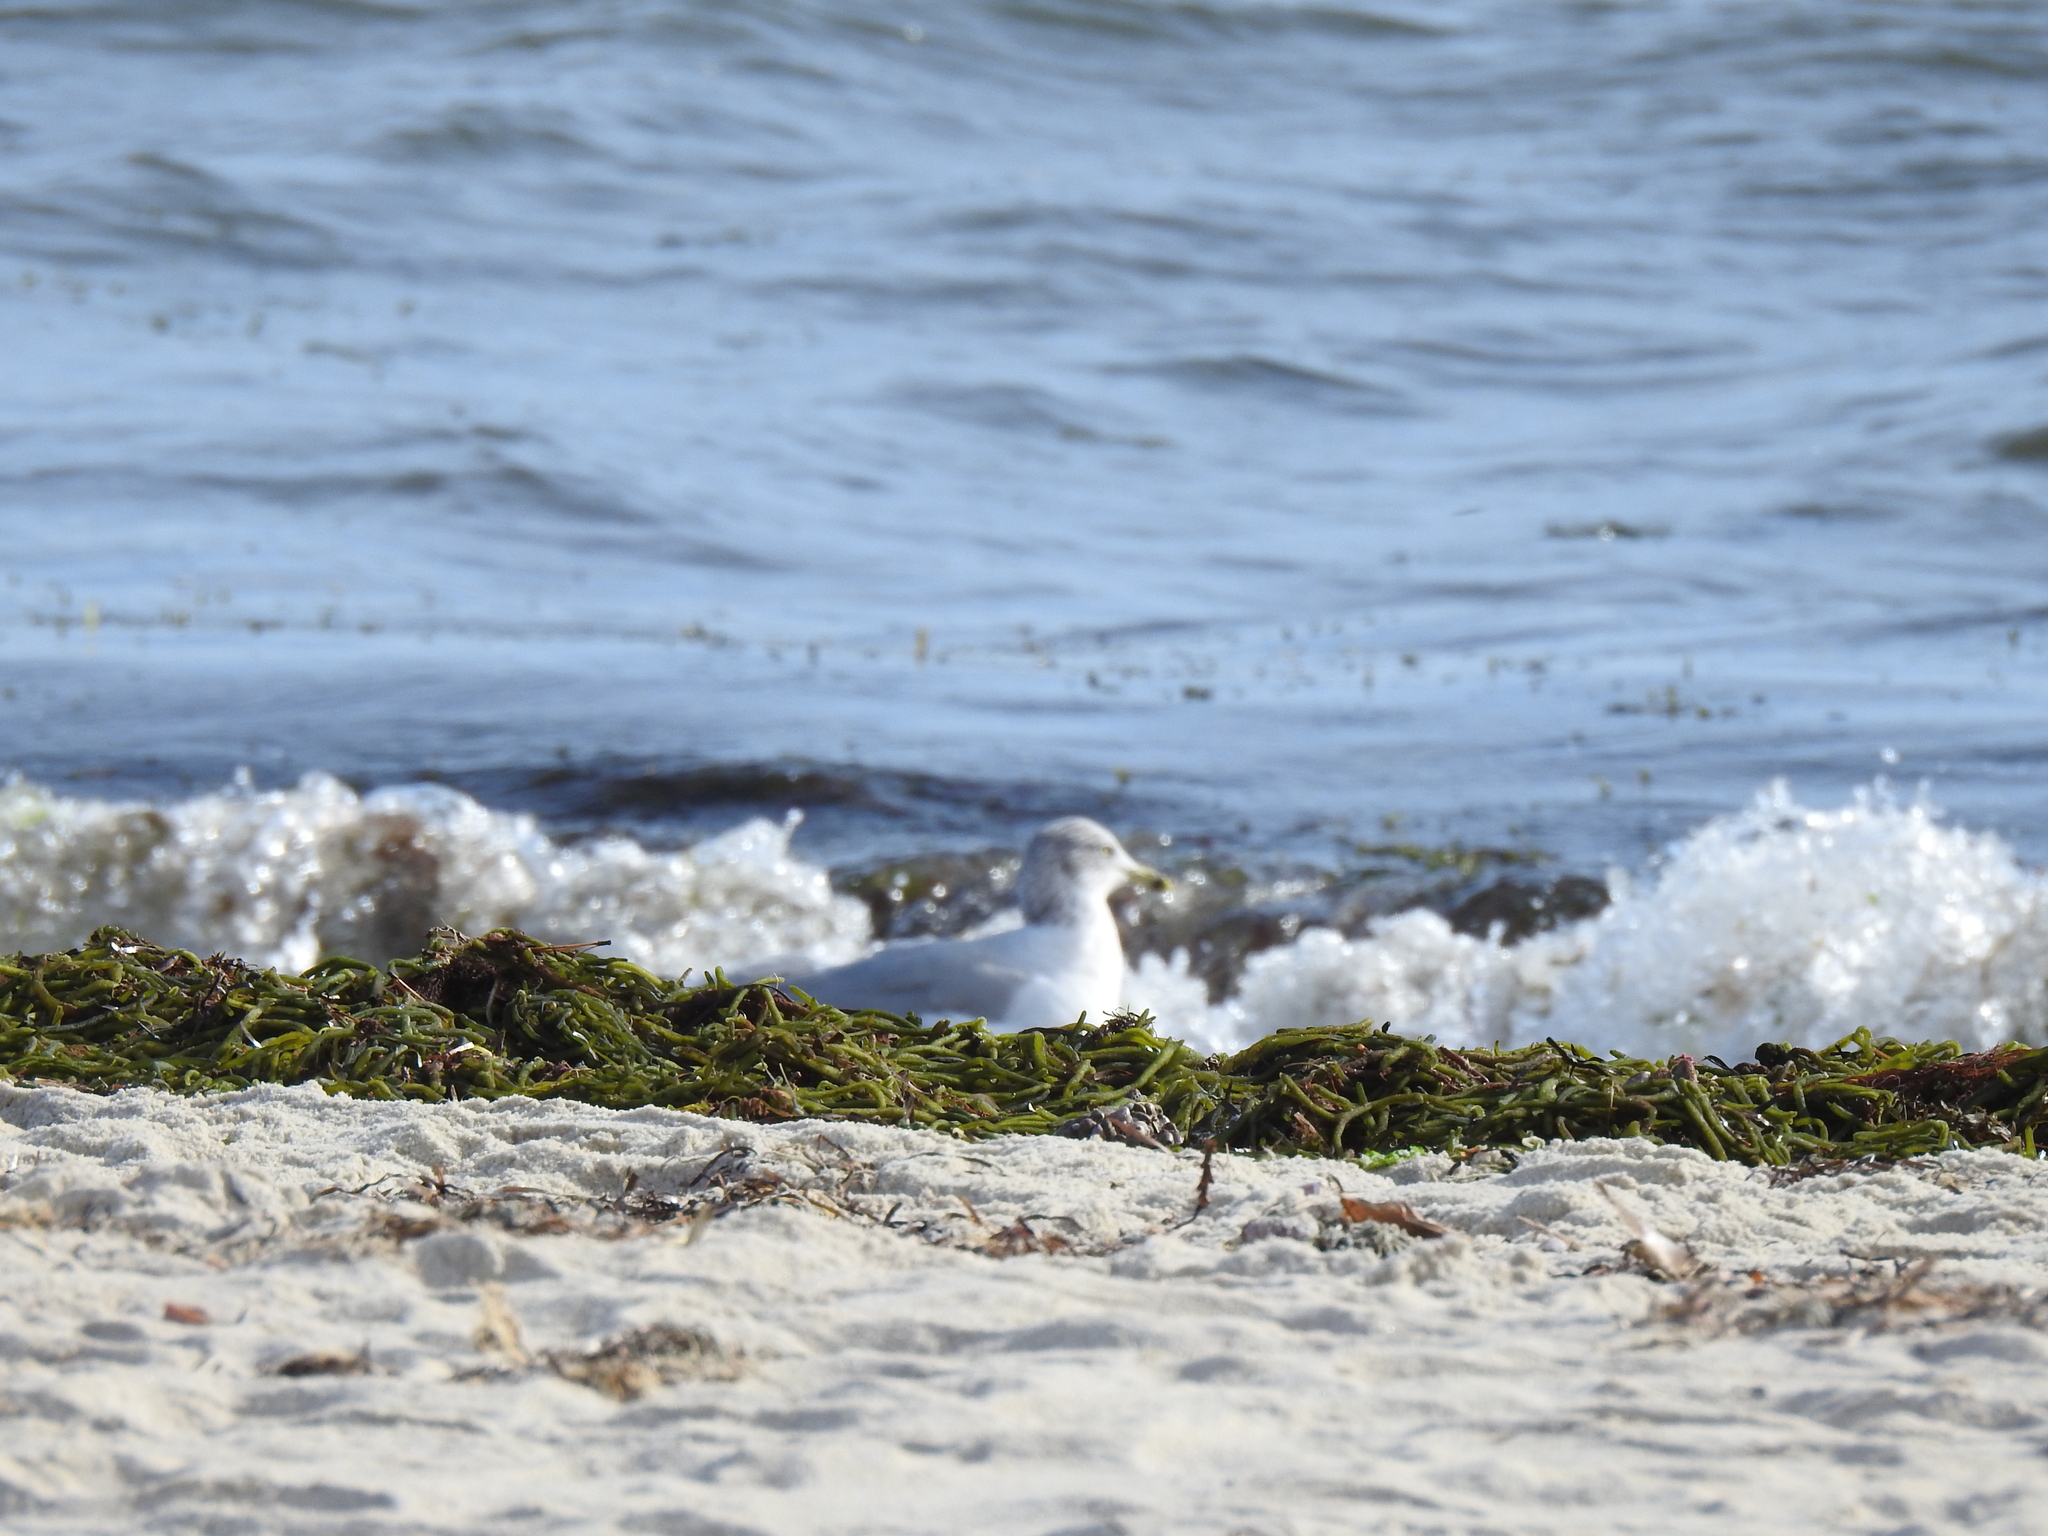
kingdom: Animalia
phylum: Chordata
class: Aves
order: Charadriiformes
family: Laridae
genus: Larus
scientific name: Larus delawarensis
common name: Ring-billed gull
